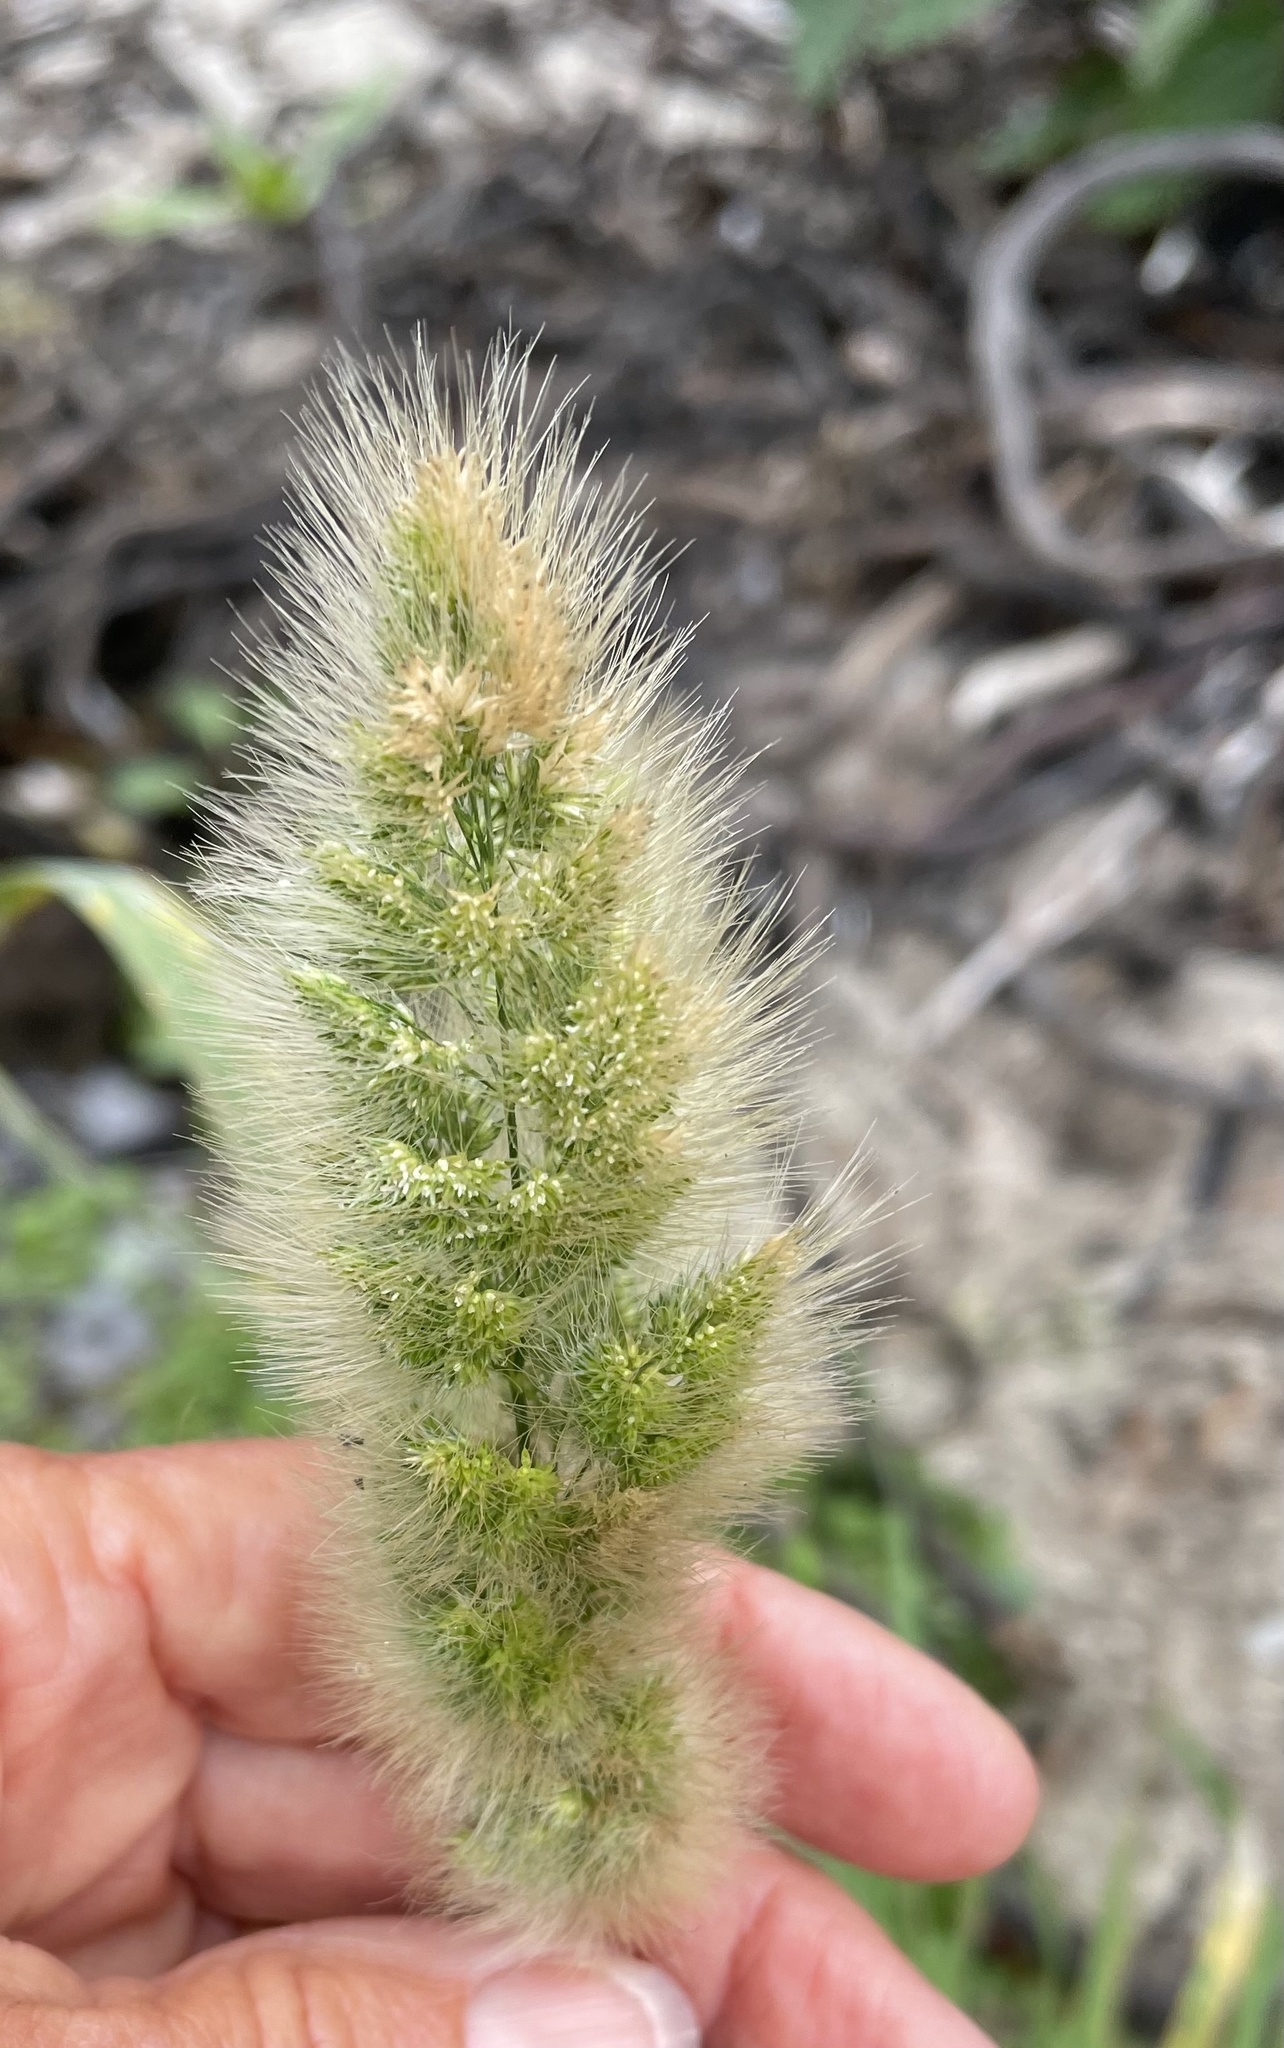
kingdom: Plantae
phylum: Tracheophyta
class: Liliopsida
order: Poales
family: Poaceae
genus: Polypogon
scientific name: Polypogon monspeliensis
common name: Annual rabbitsfoot grass
